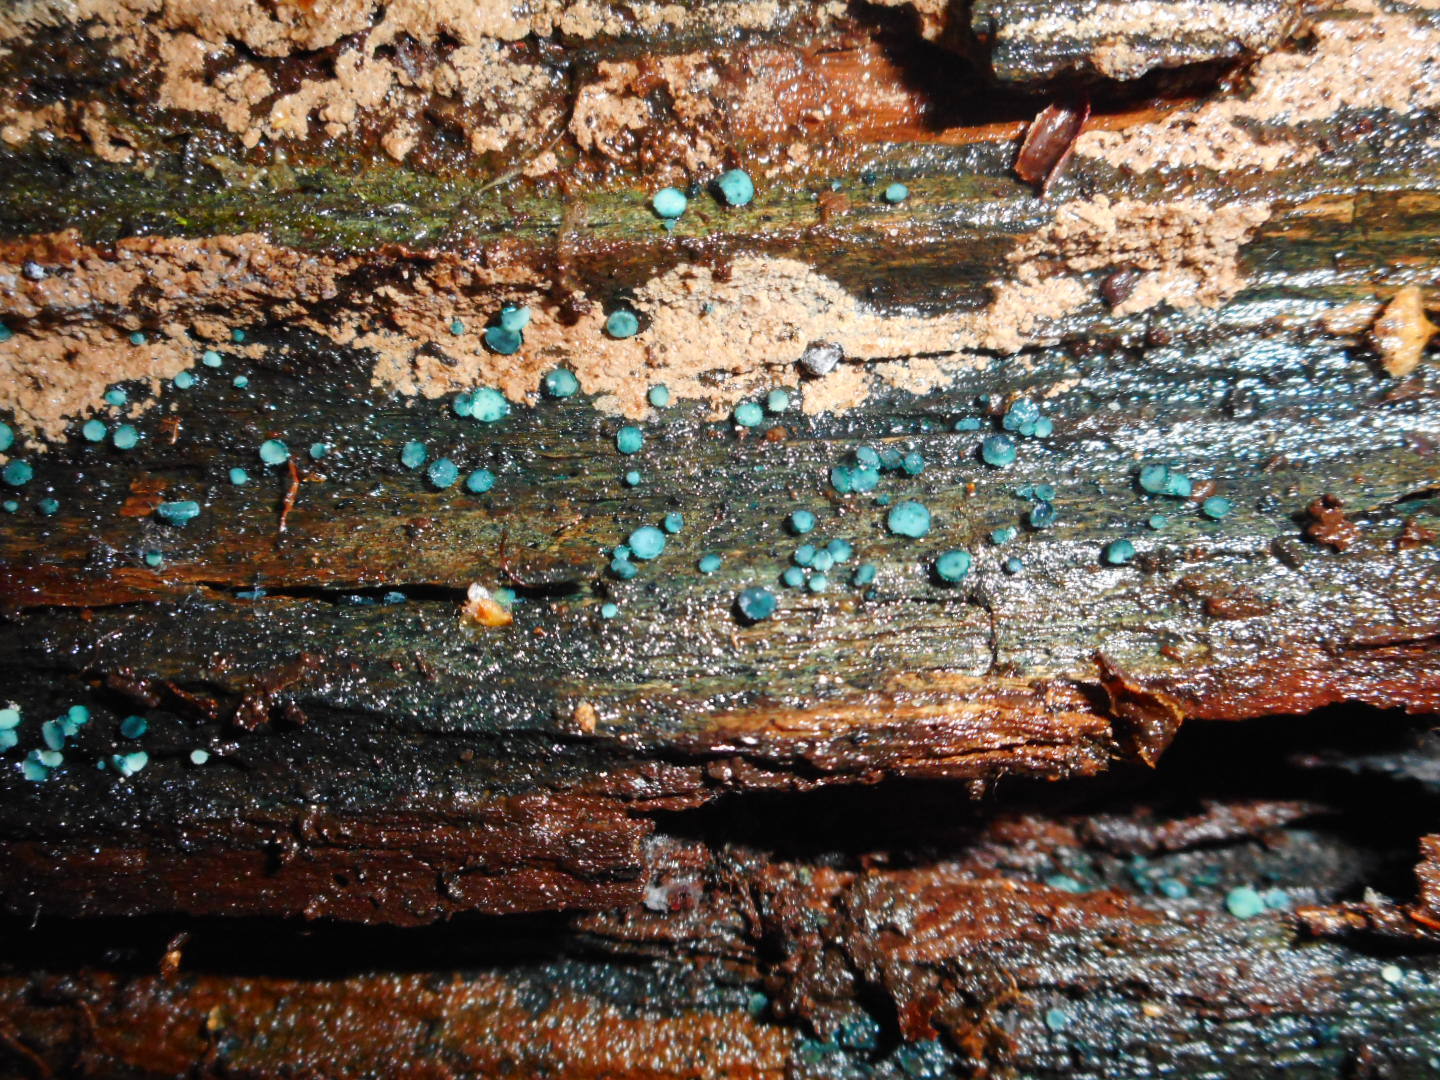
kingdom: Fungi
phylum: Ascomycota
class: Leotiomycetes
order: Helotiales
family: Hyaloscyphaceae
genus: Aeruginoscyphus
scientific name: Aeruginoscyphus sericeus
